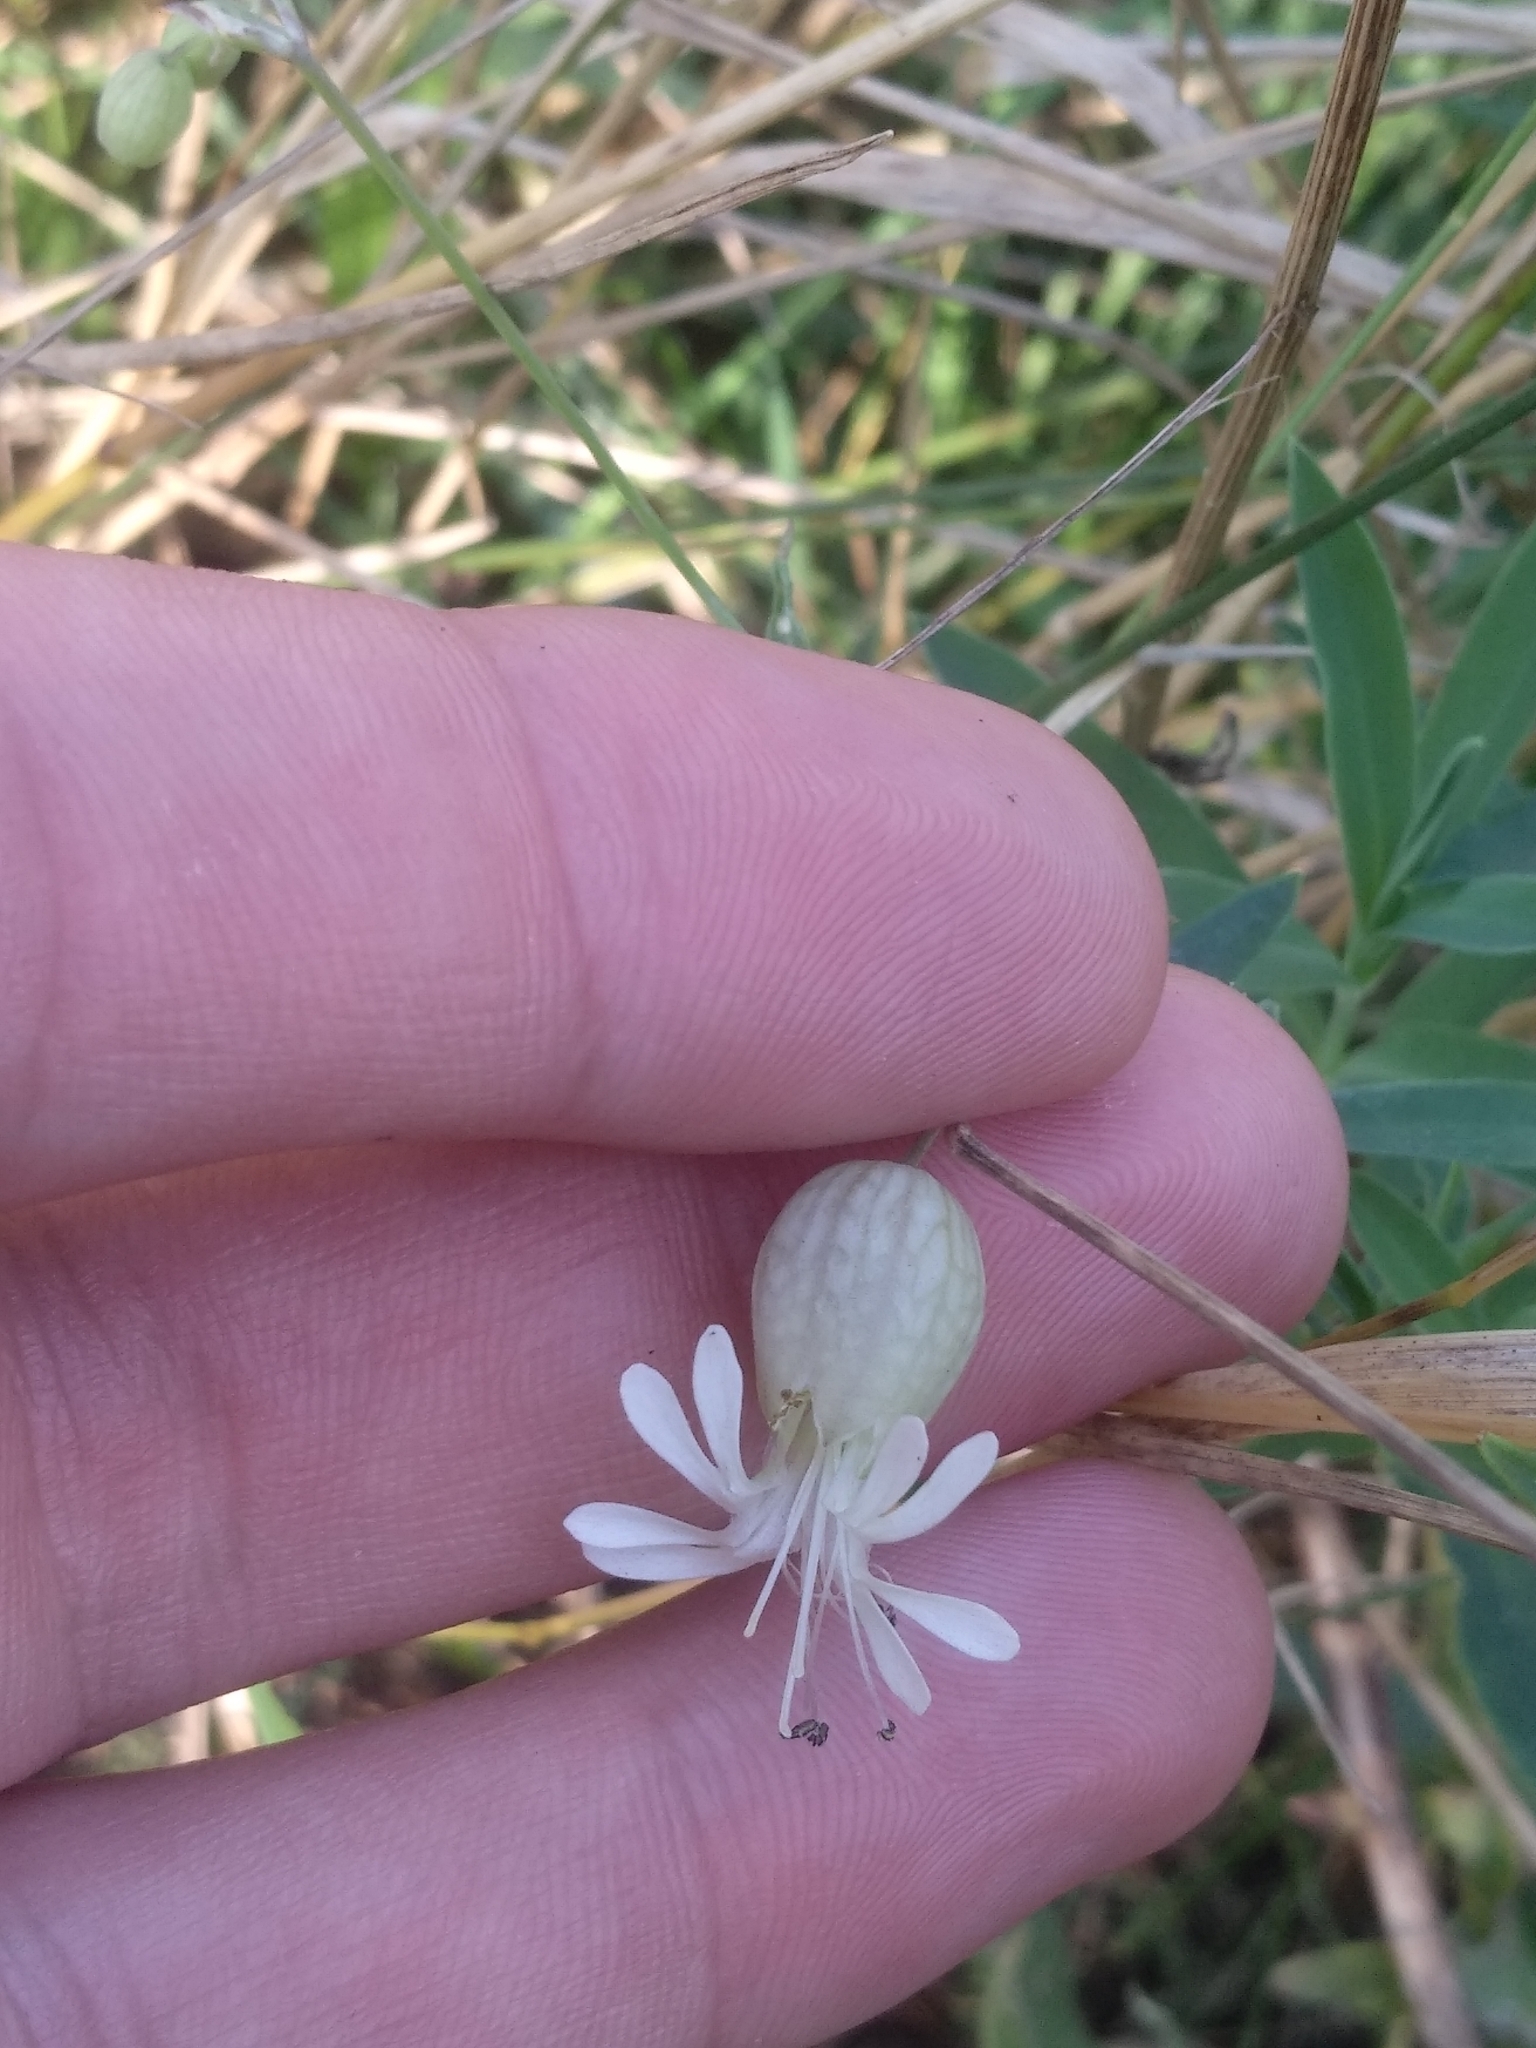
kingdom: Plantae
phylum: Tracheophyta
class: Magnoliopsida
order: Caryophyllales
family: Caryophyllaceae
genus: Silene
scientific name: Silene vulgaris
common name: Bladder campion
